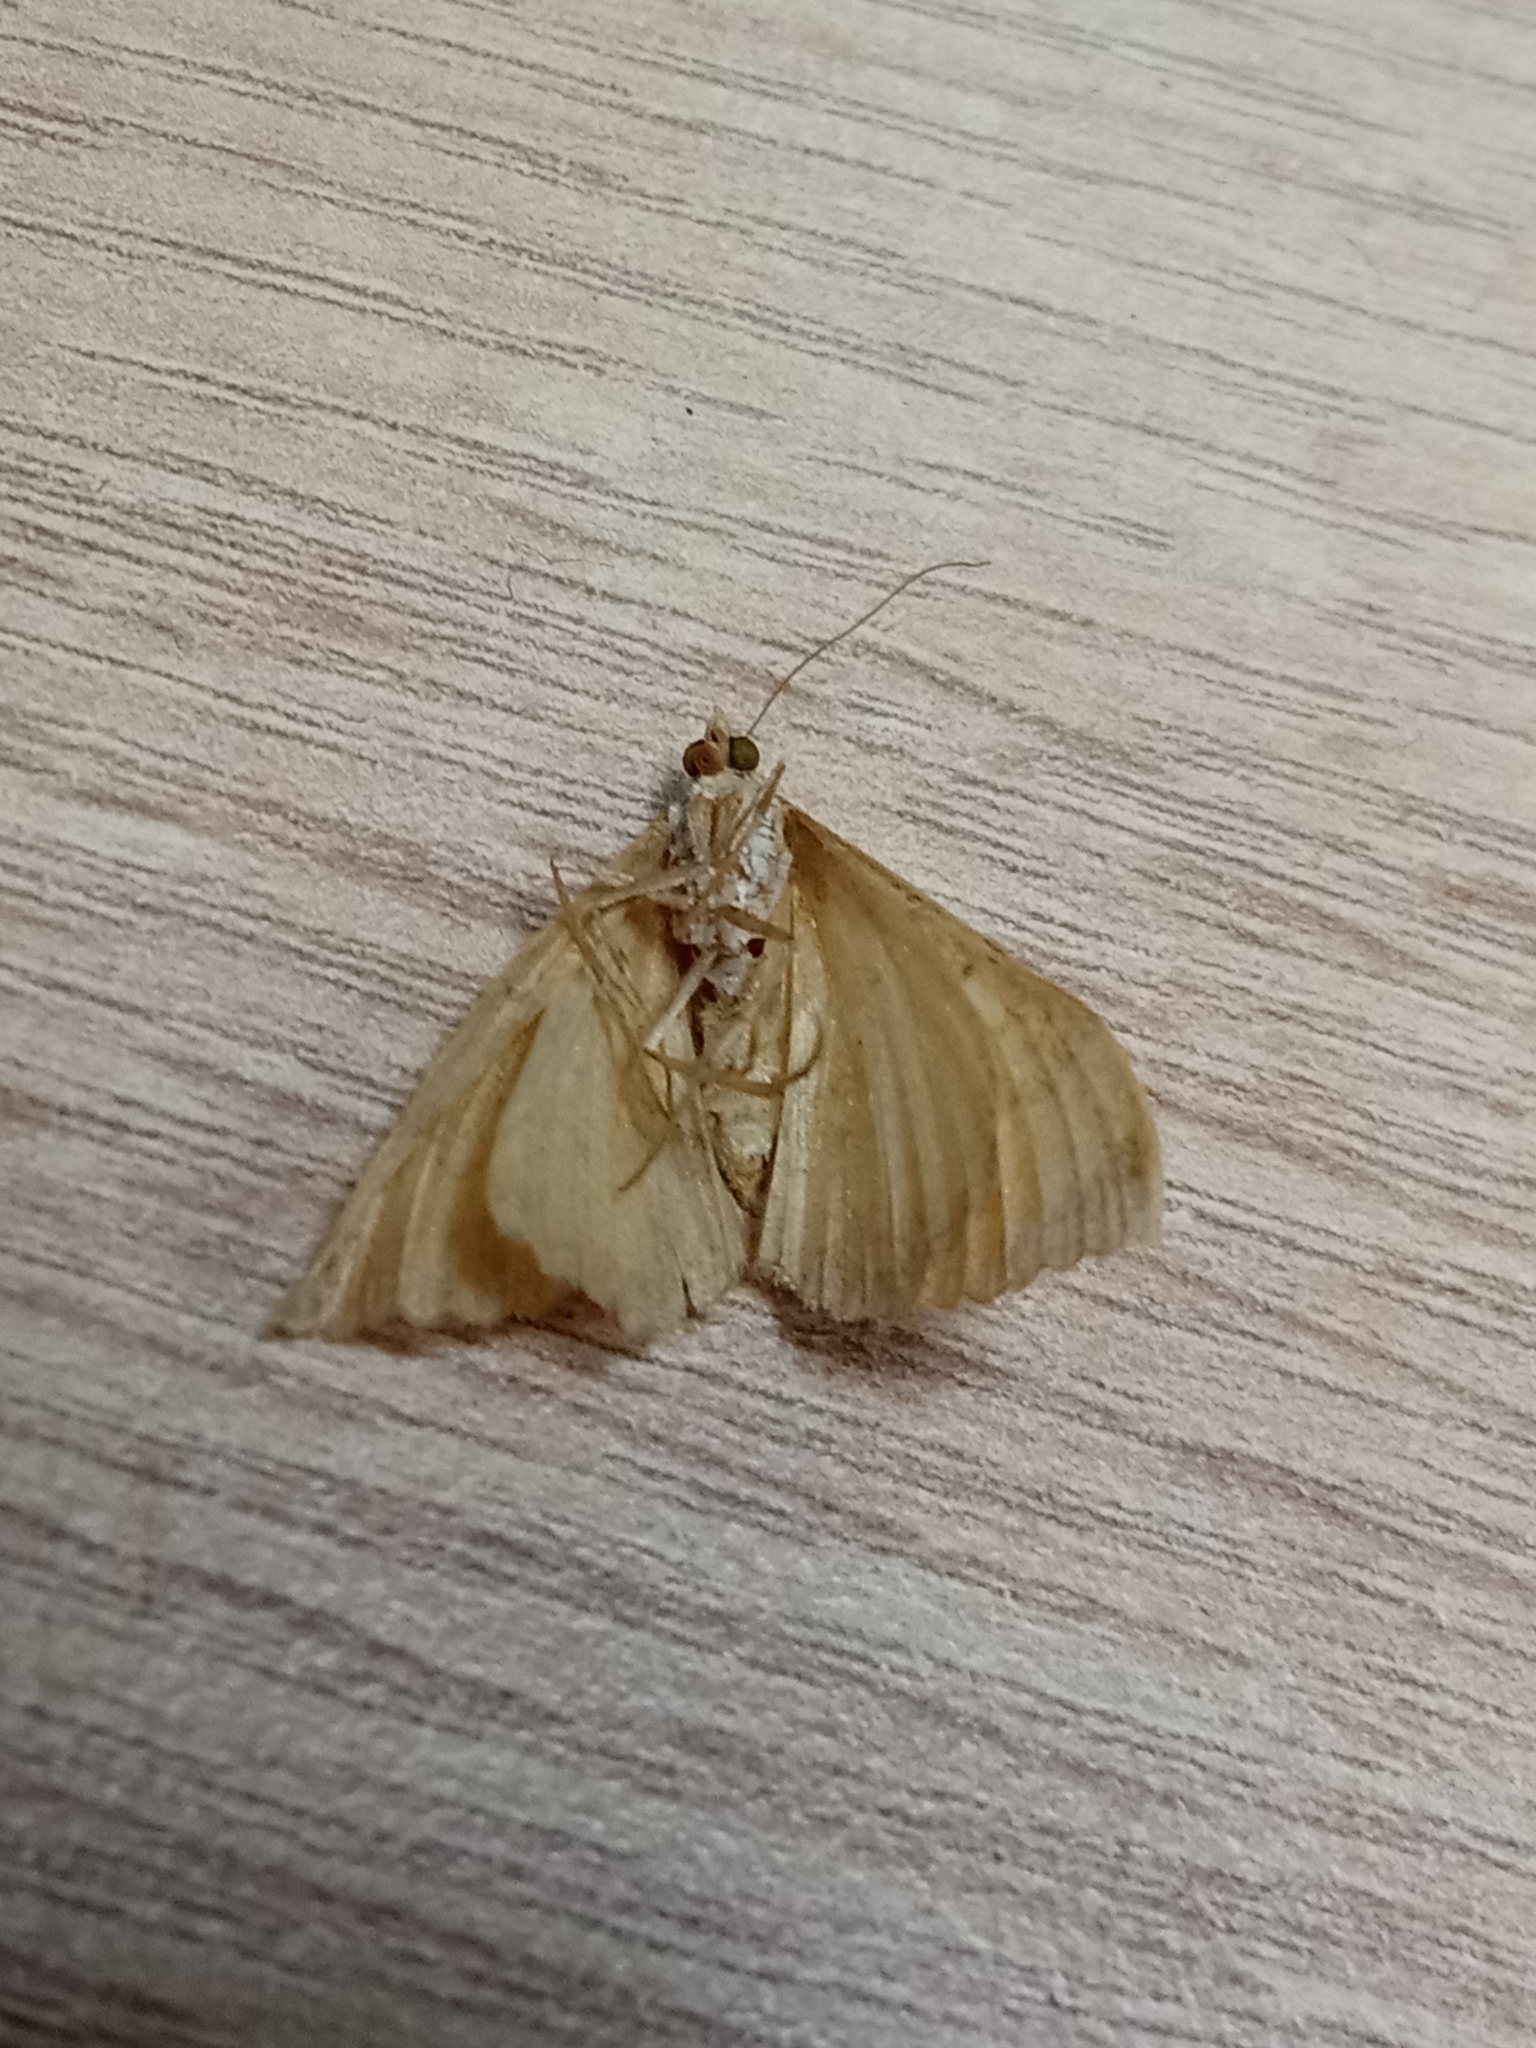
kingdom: Animalia
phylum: Arthropoda
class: Insecta
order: Lepidoptera
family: Geometridae
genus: Camptogramma
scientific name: Camptogramma bilineata
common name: Yellow shell
